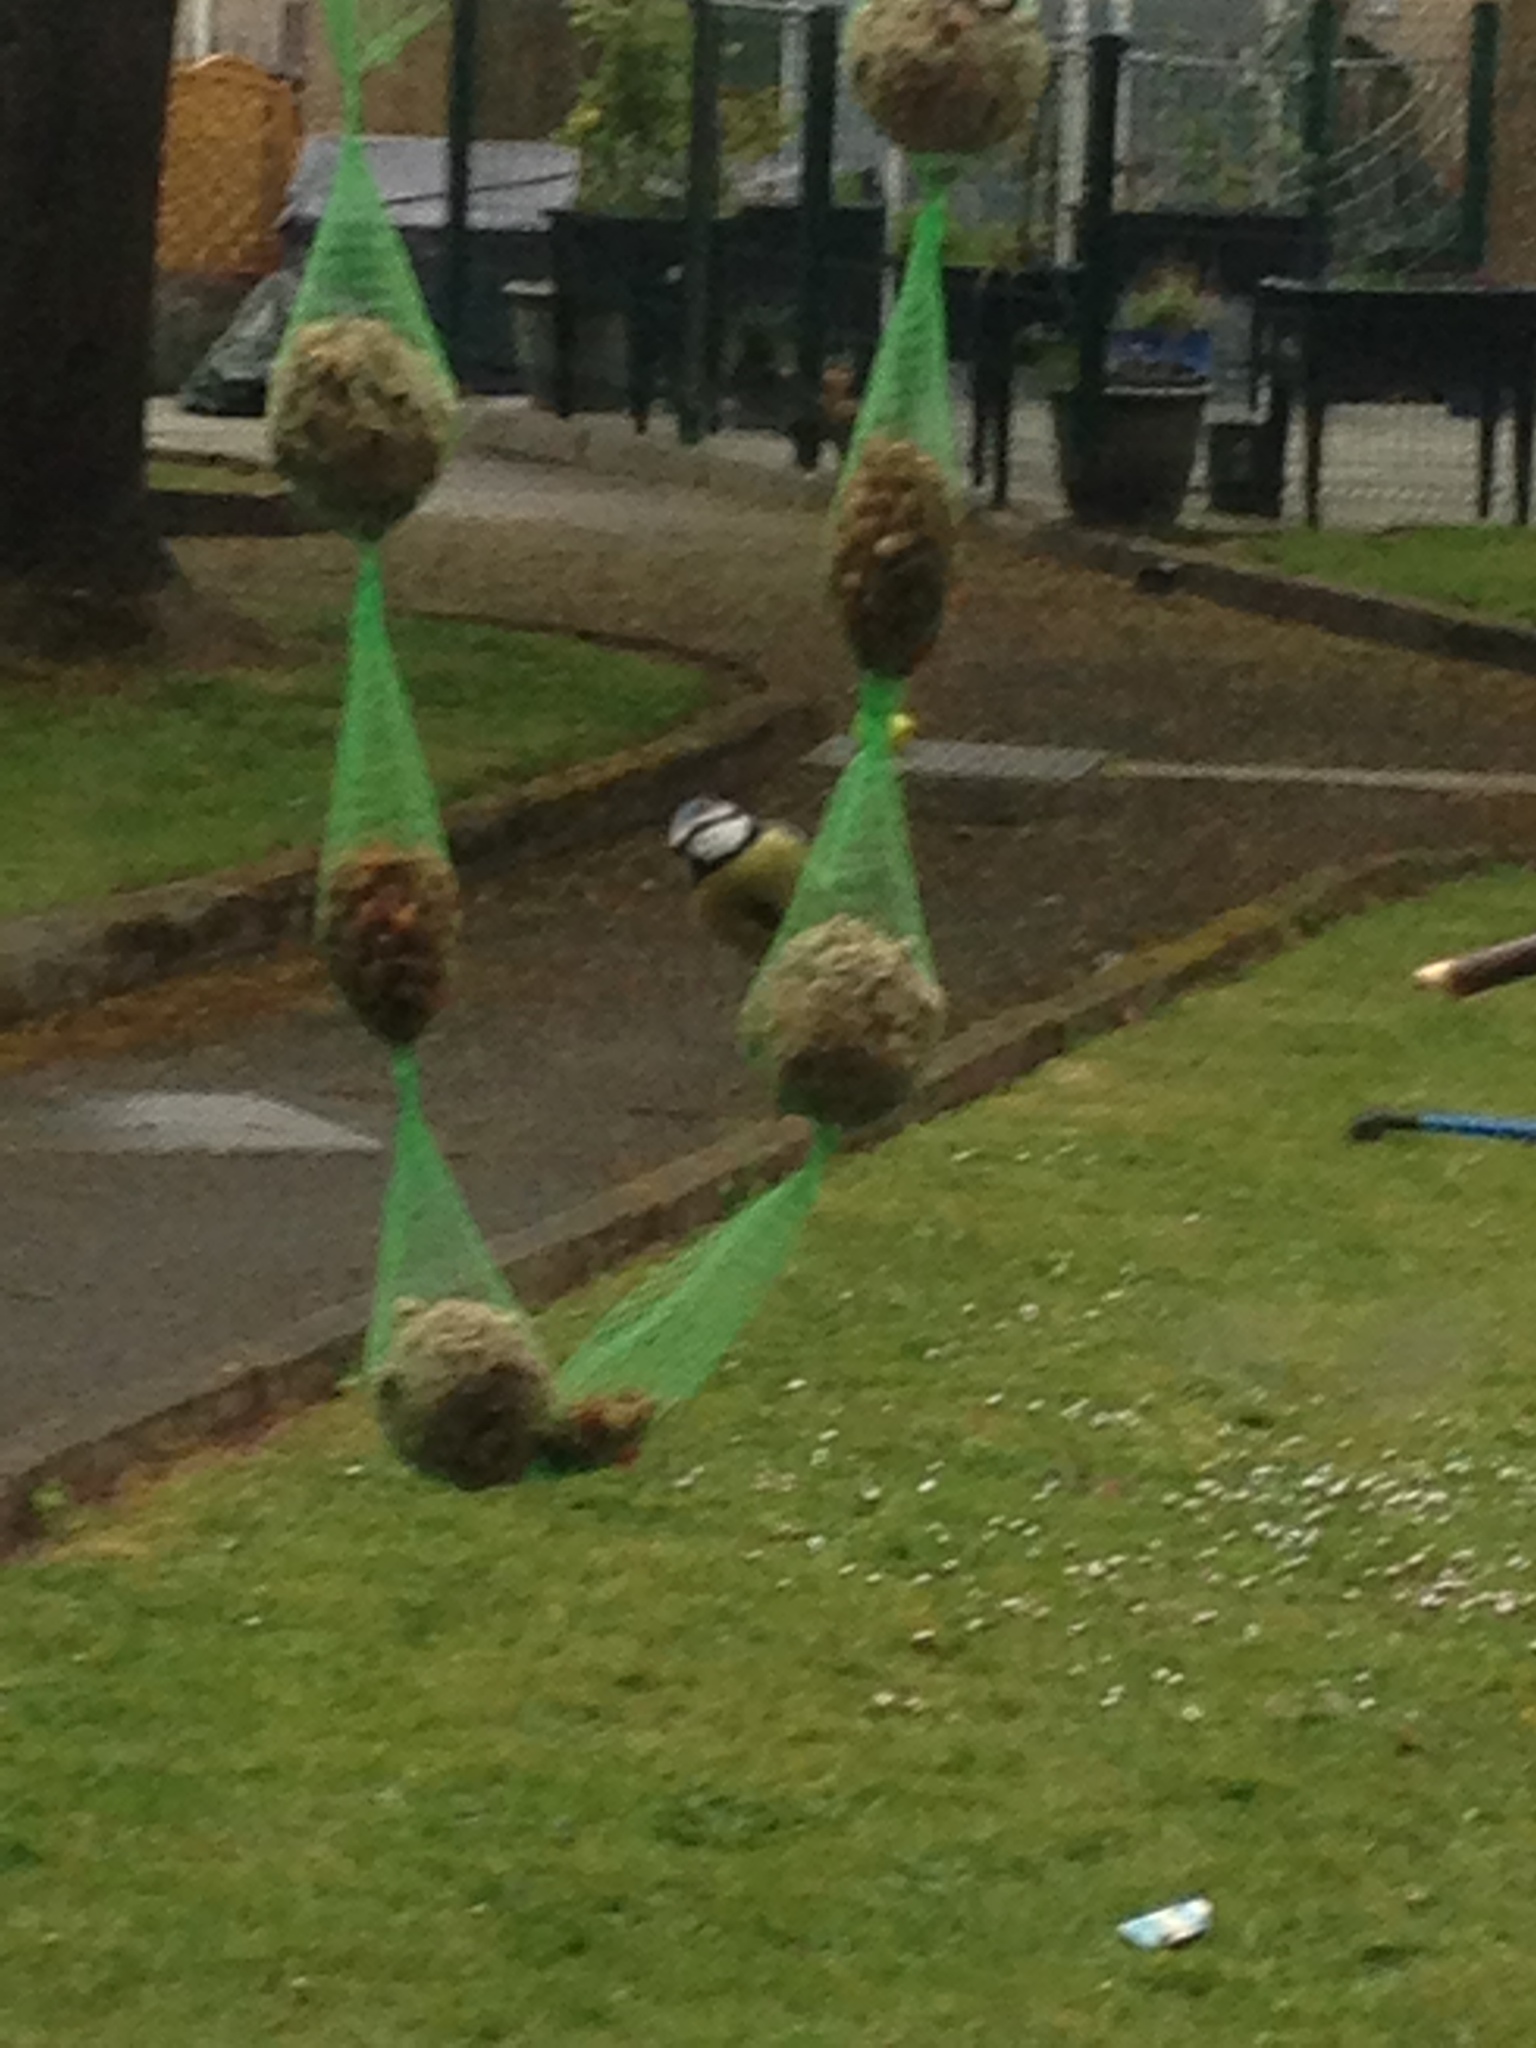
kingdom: Animalia
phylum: Chordata
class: Aves
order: Passeriformes
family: Paridae
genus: Cyanistes
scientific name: Cyanistes caeruleus
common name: Eurasian blue tit
